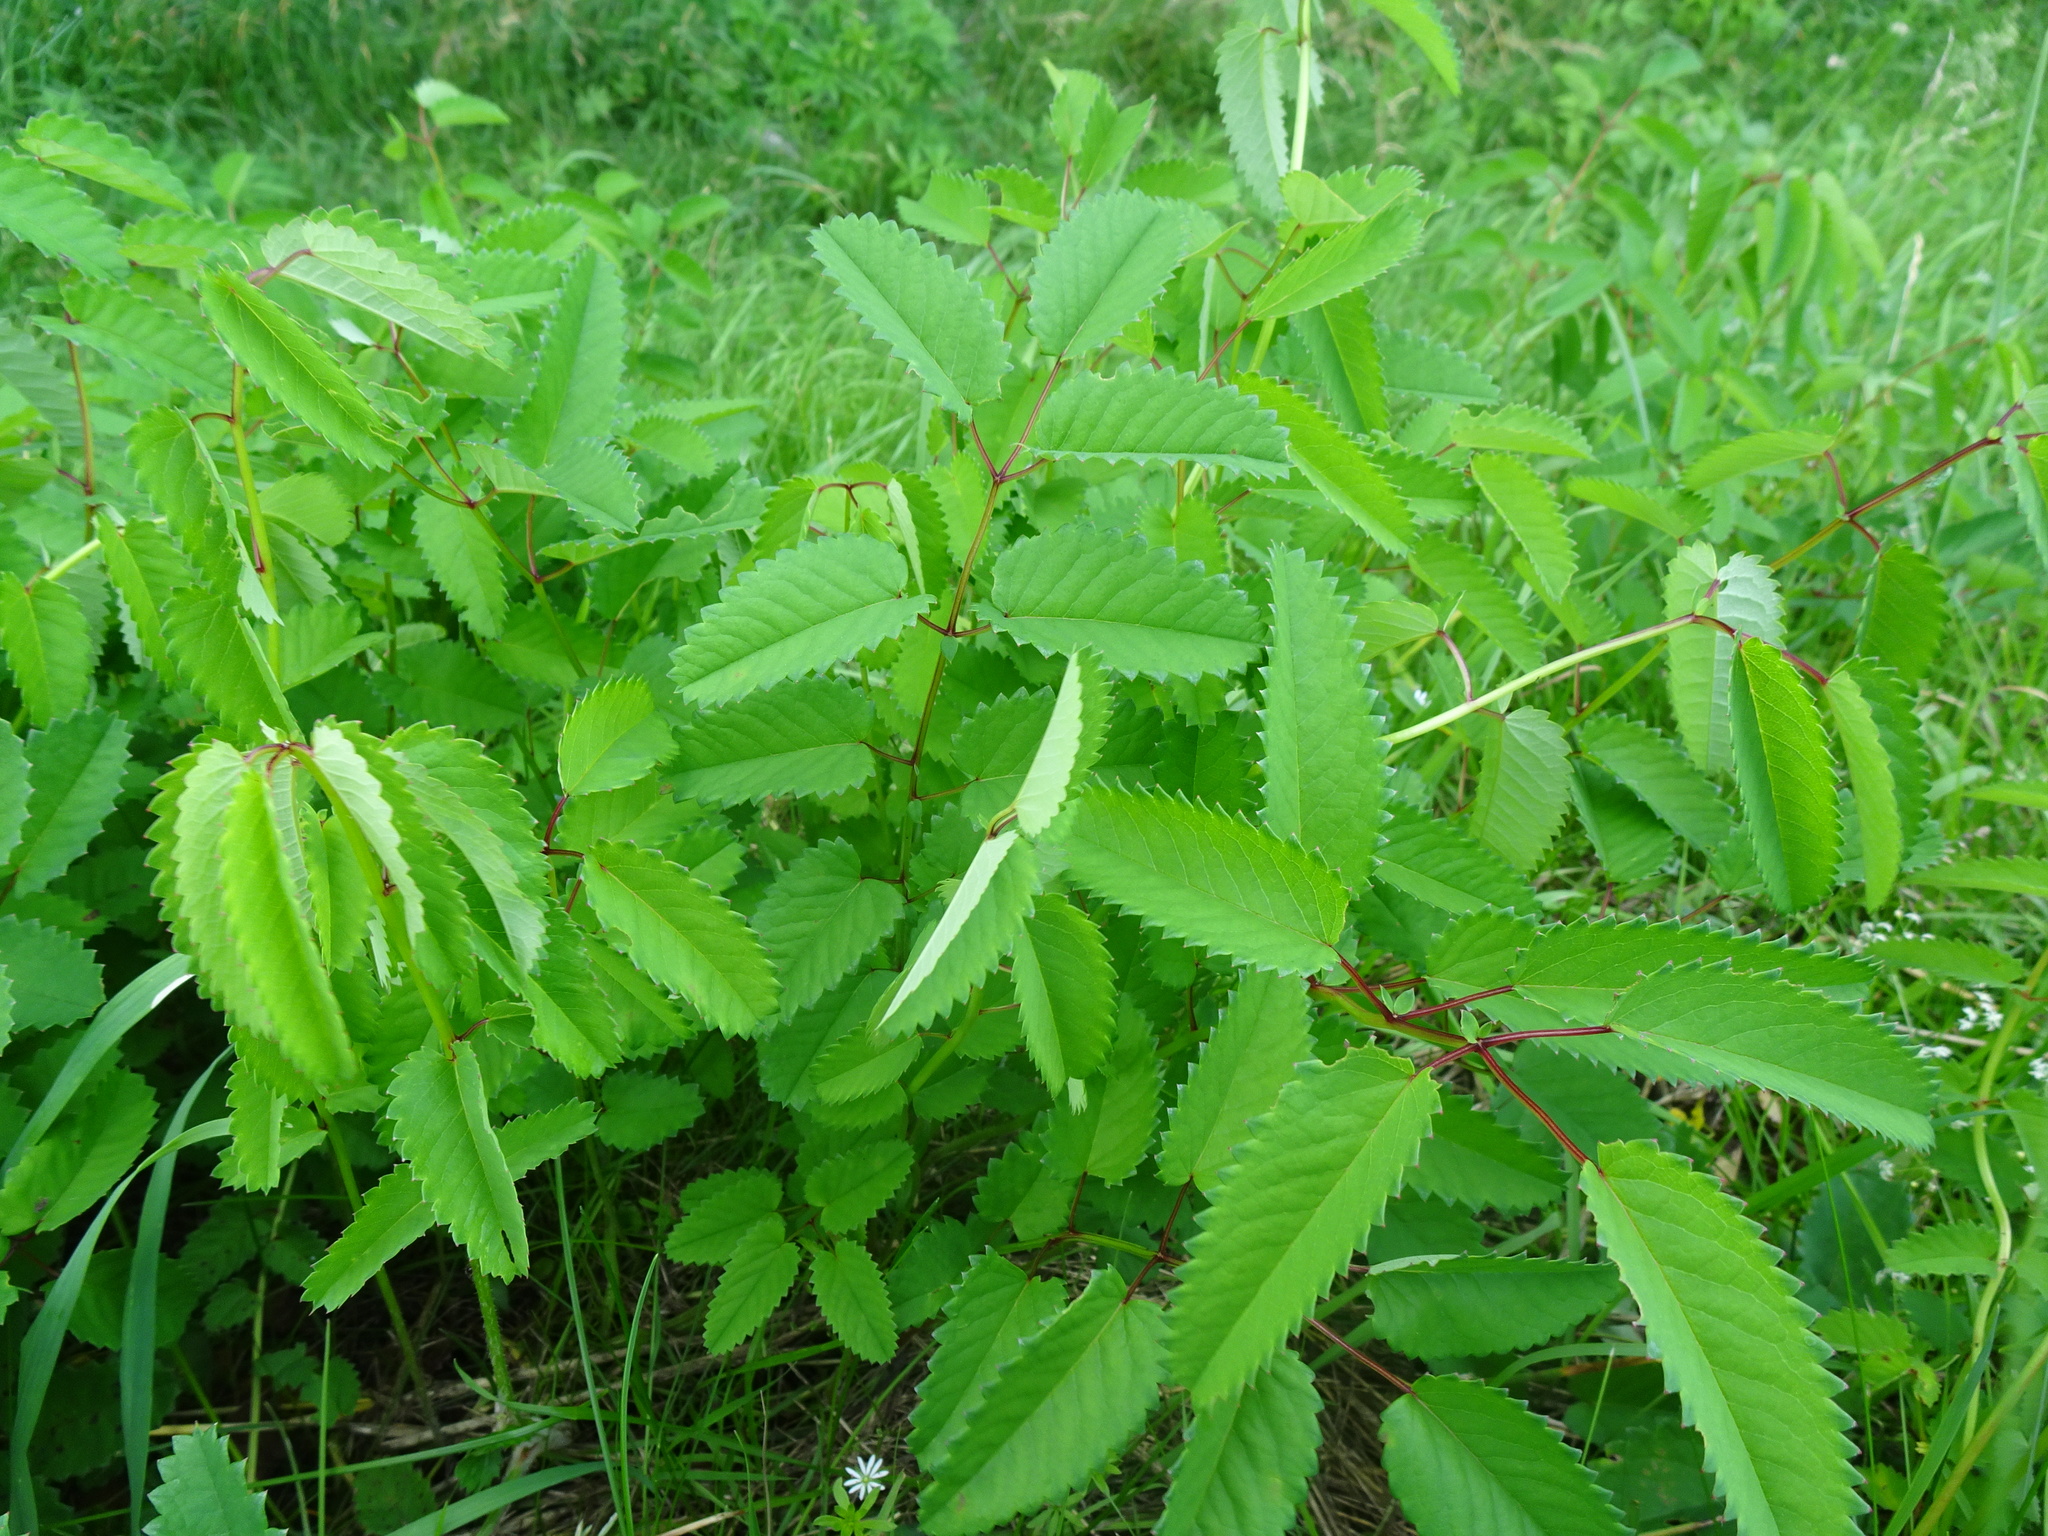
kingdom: Plantae
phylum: Tracheophyta
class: Magnoliopsida
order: Rosales
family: Rosaceae
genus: Sanguisorba
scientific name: Sanguisorba officinalis
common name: Great burnet
